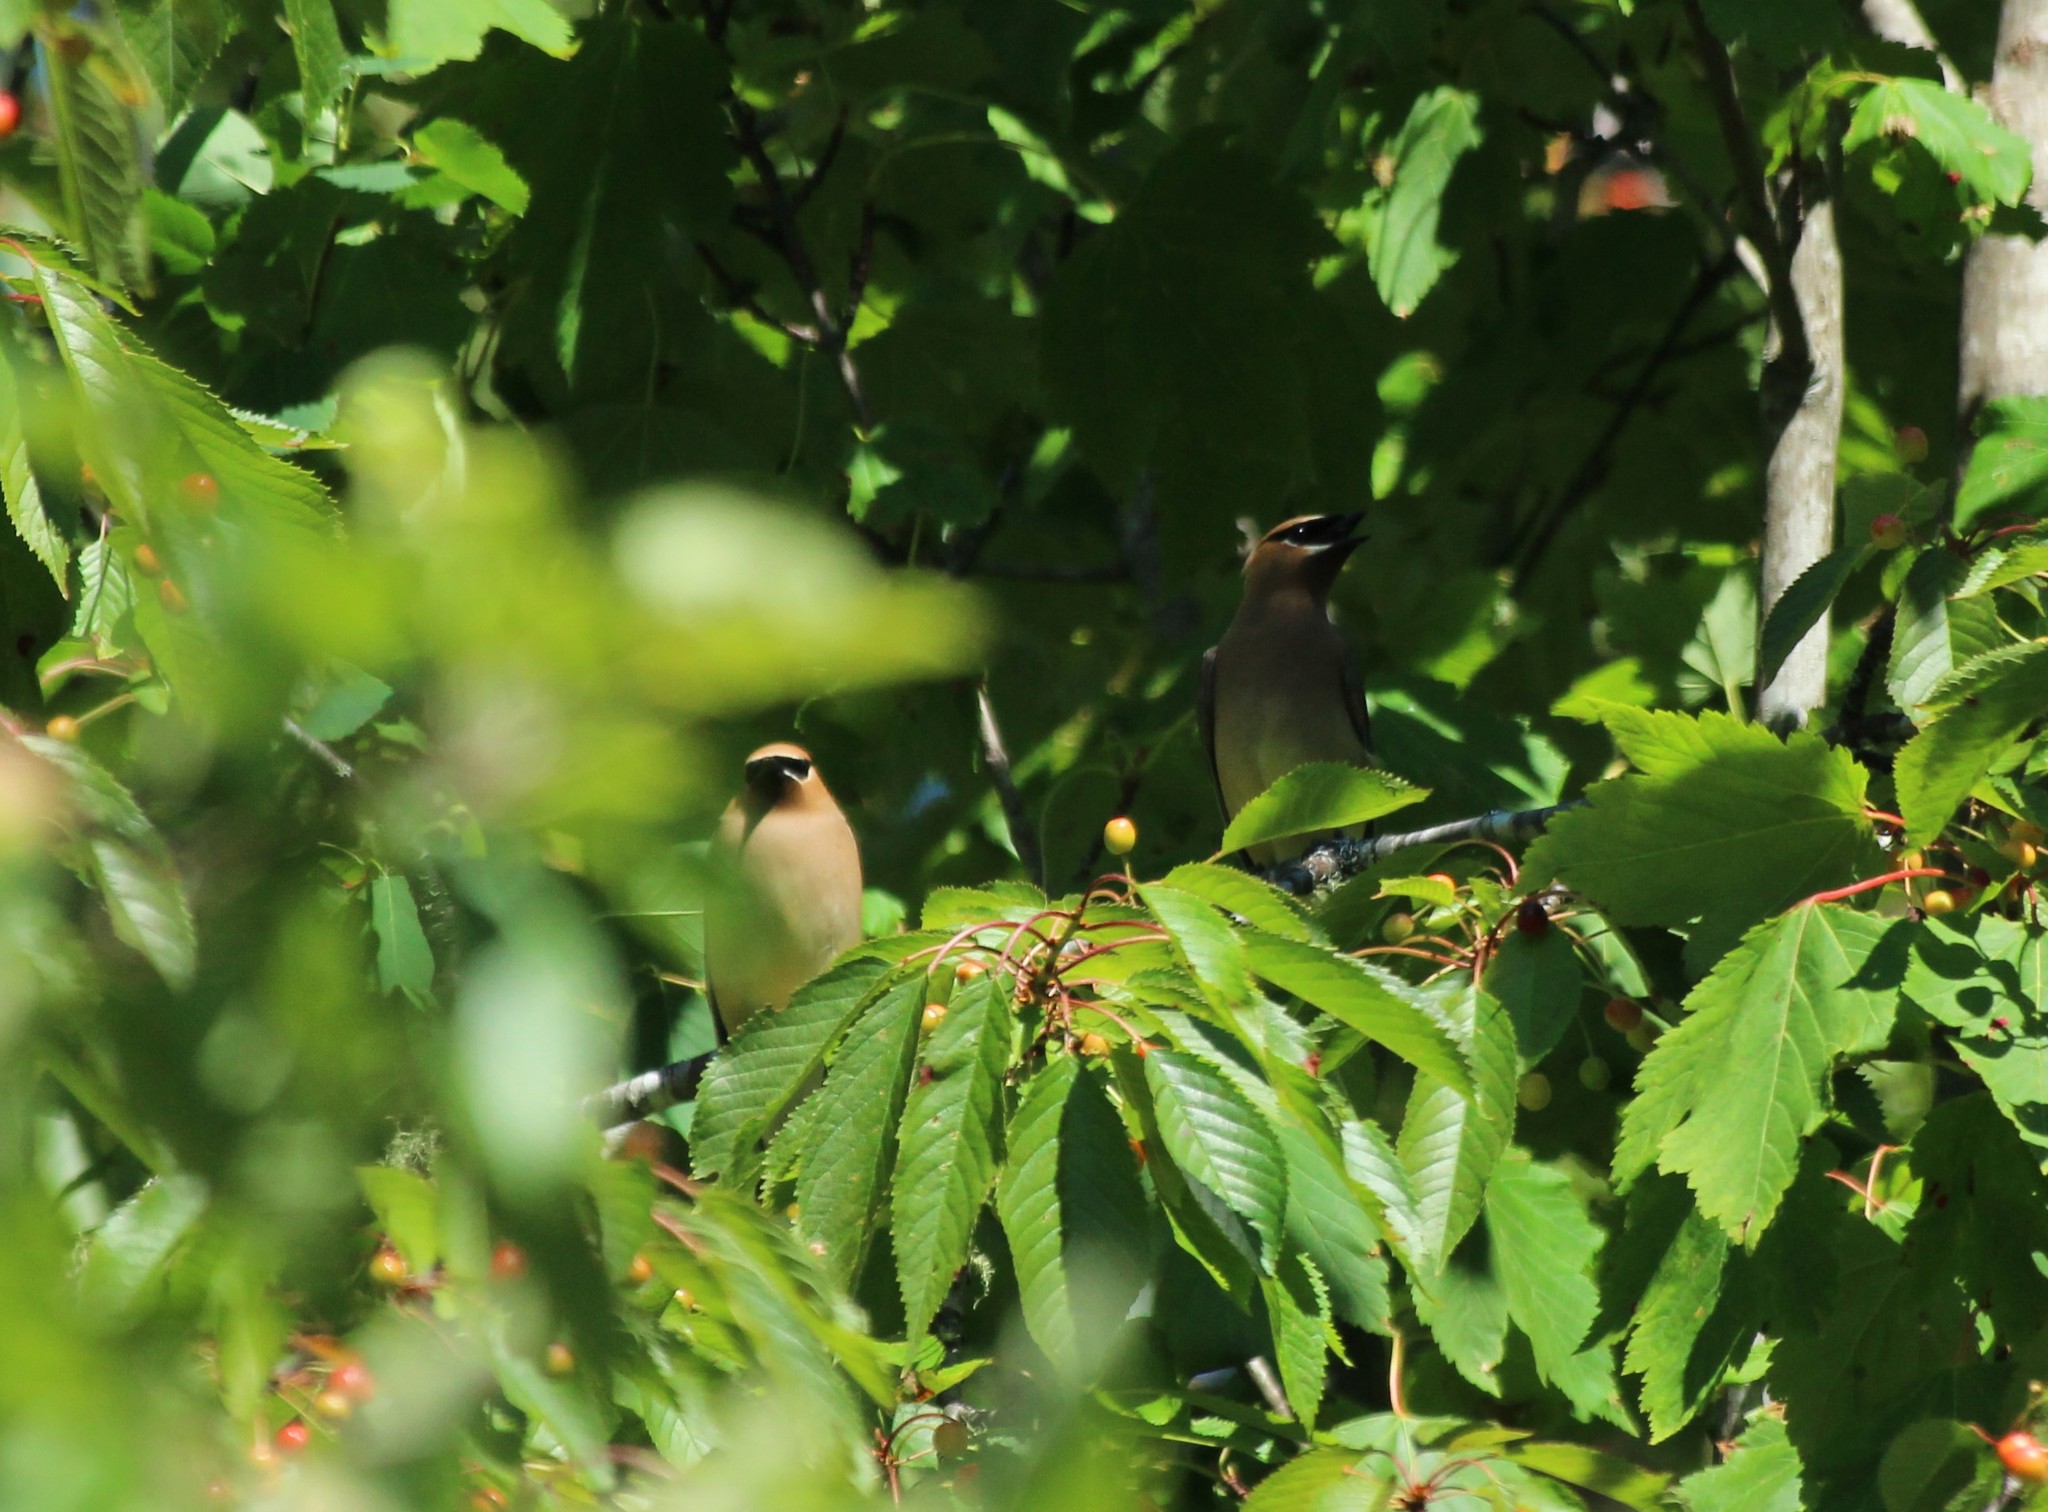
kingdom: Animalia
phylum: Chordata
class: Aves
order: Passeriformes
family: Bombycillidae
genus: Bombycilla
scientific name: Bombycilla cedrorum
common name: Cedar waxwing
